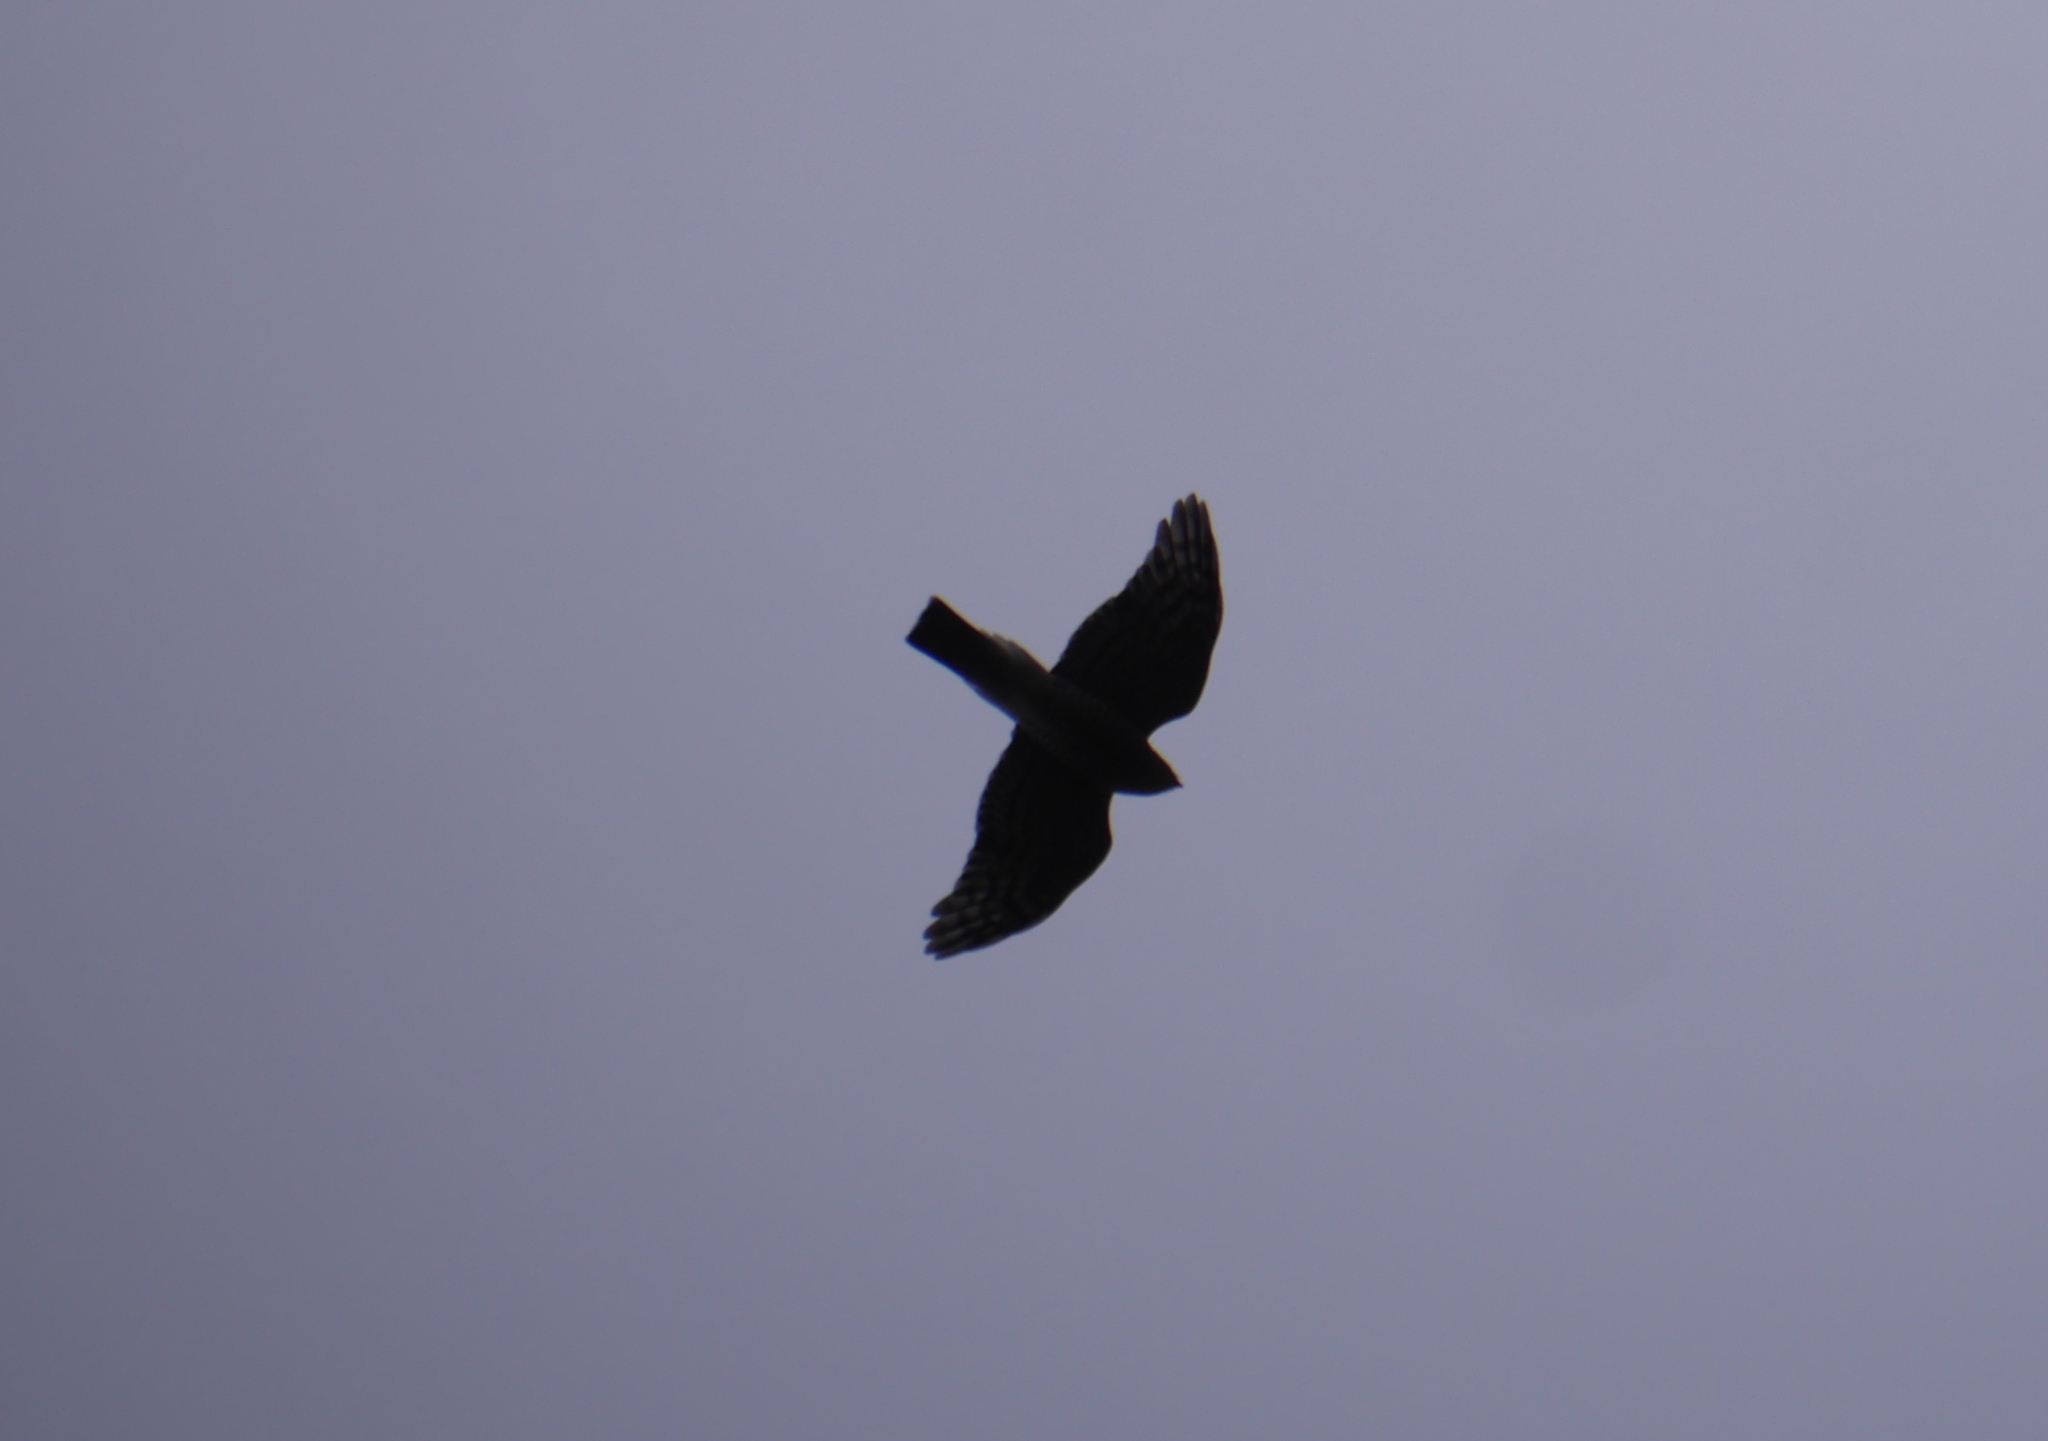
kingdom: Animalia
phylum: Chordata
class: Aves
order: Accipitriformes
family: Accipitridae
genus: Accipiter
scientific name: Accipiter nisus
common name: Eurasian sparrowhawk
